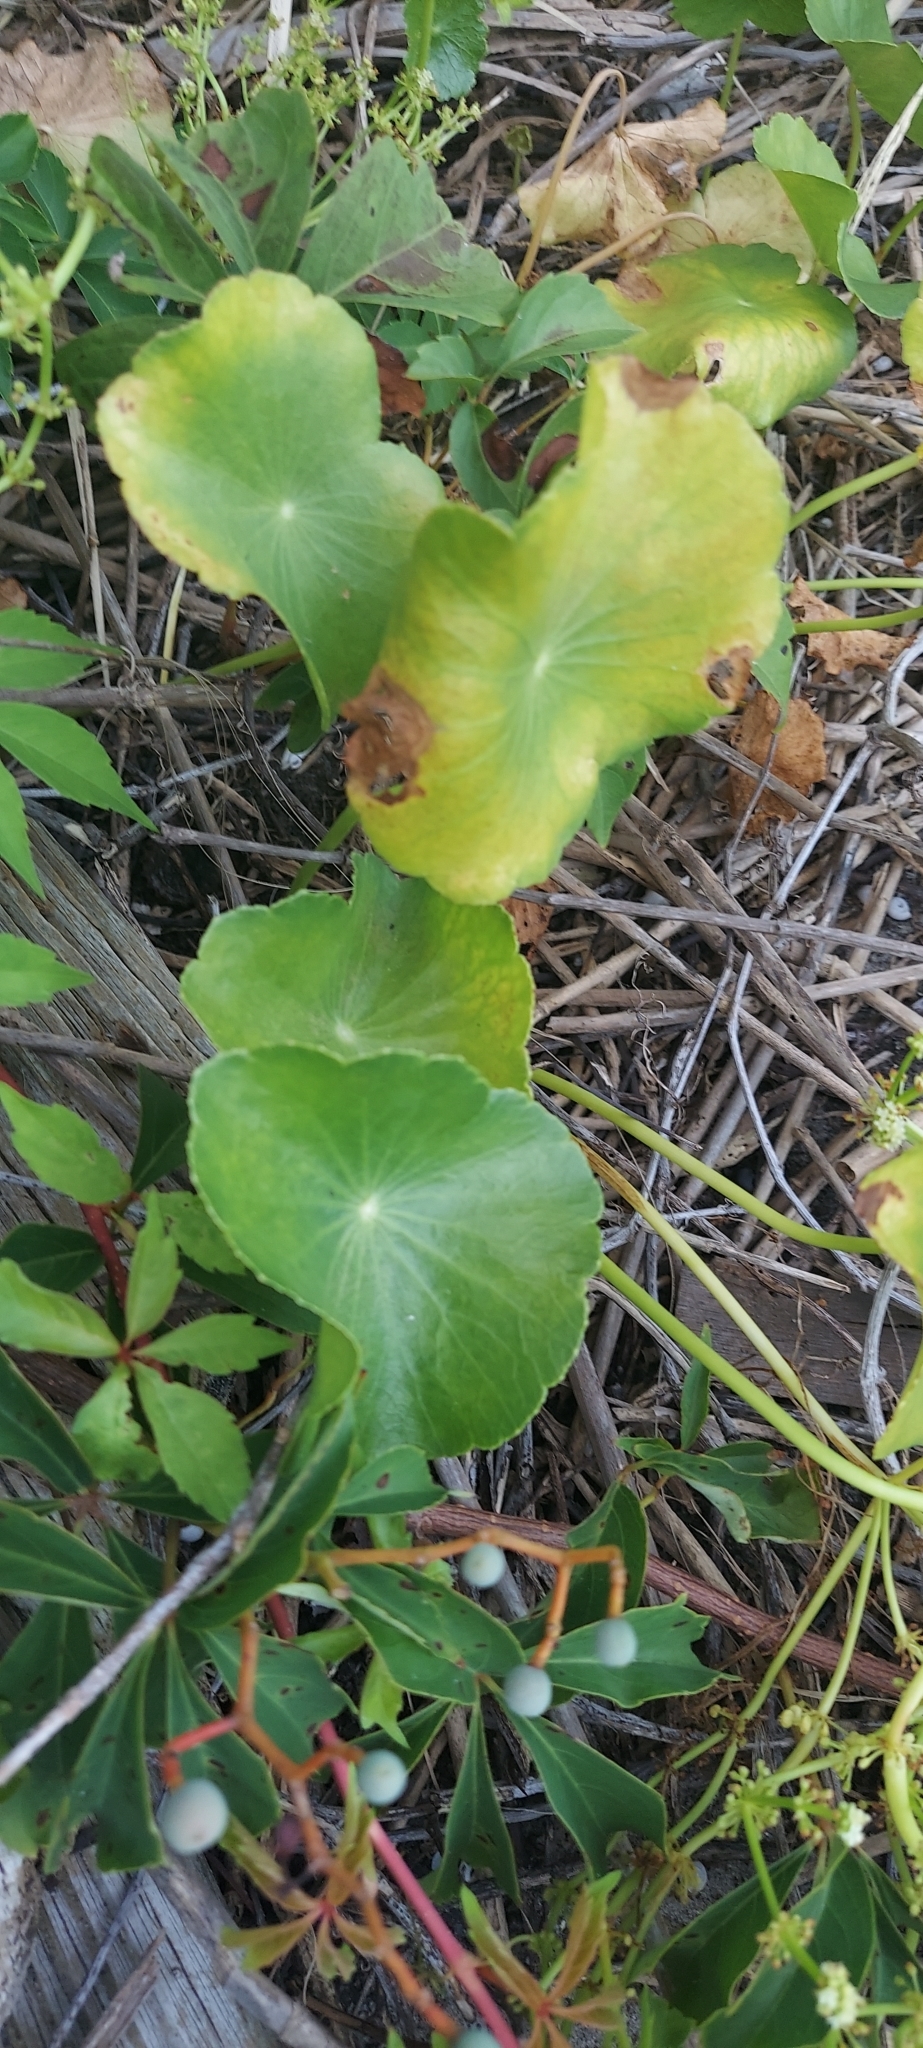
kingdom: Plantae
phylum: Tracheophyta
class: Magnoliopsida
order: Apiales
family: Araliaceae
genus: Hydrocotyle
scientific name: Hydrocotyle bonariensis
